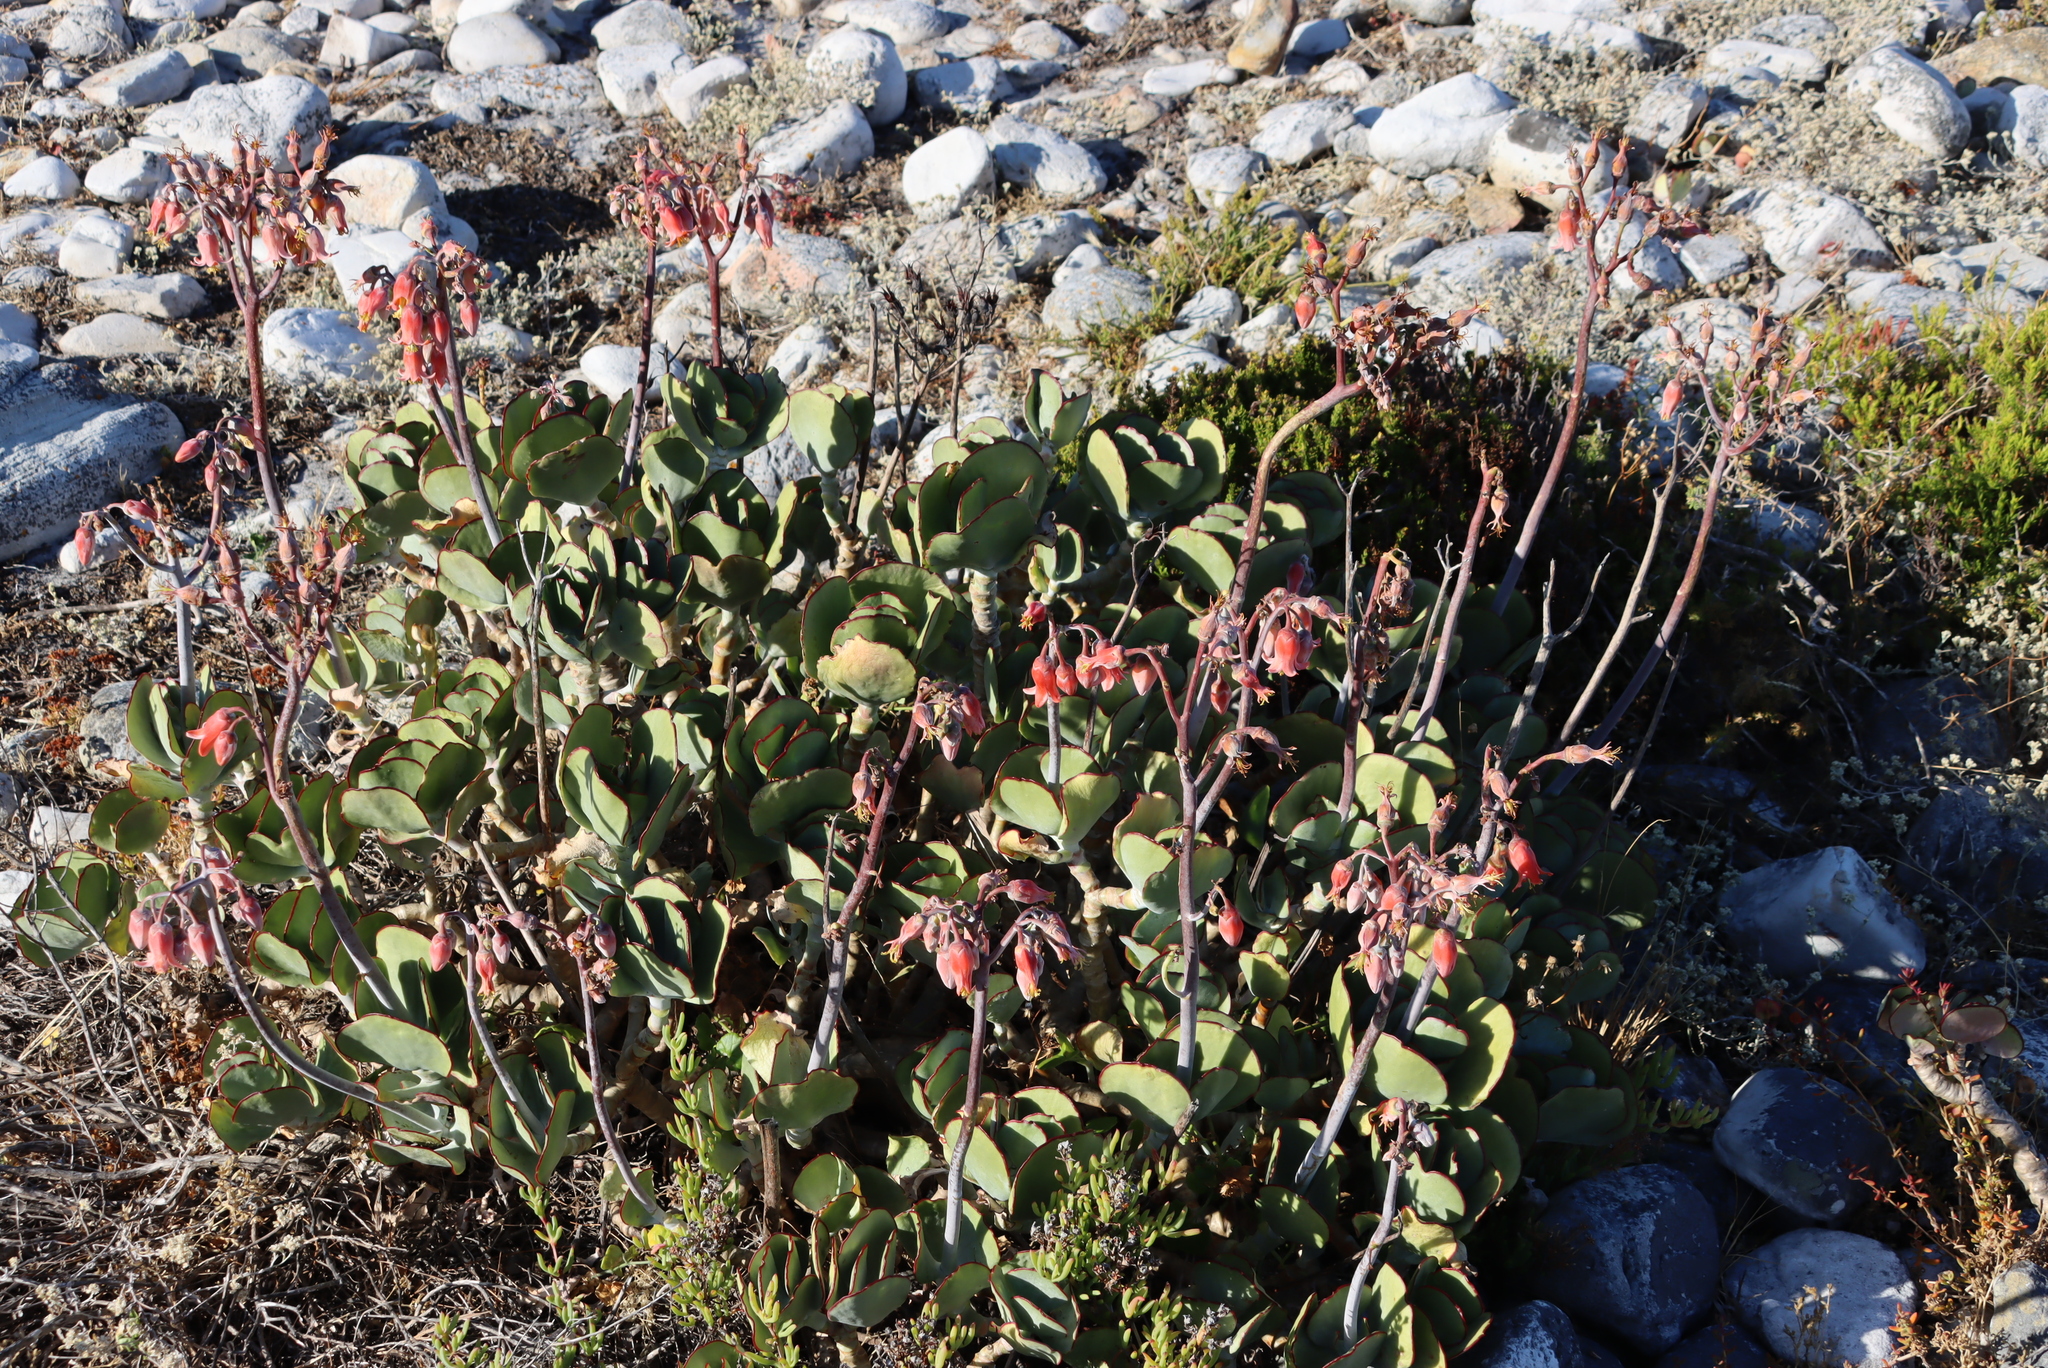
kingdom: Plantae
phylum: Tracheophyta
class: Magnoliopsida
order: Saxifragales
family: Crassulaceae
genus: Cotyledon
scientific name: Cotyledon orbiculata
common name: Pig's ear
